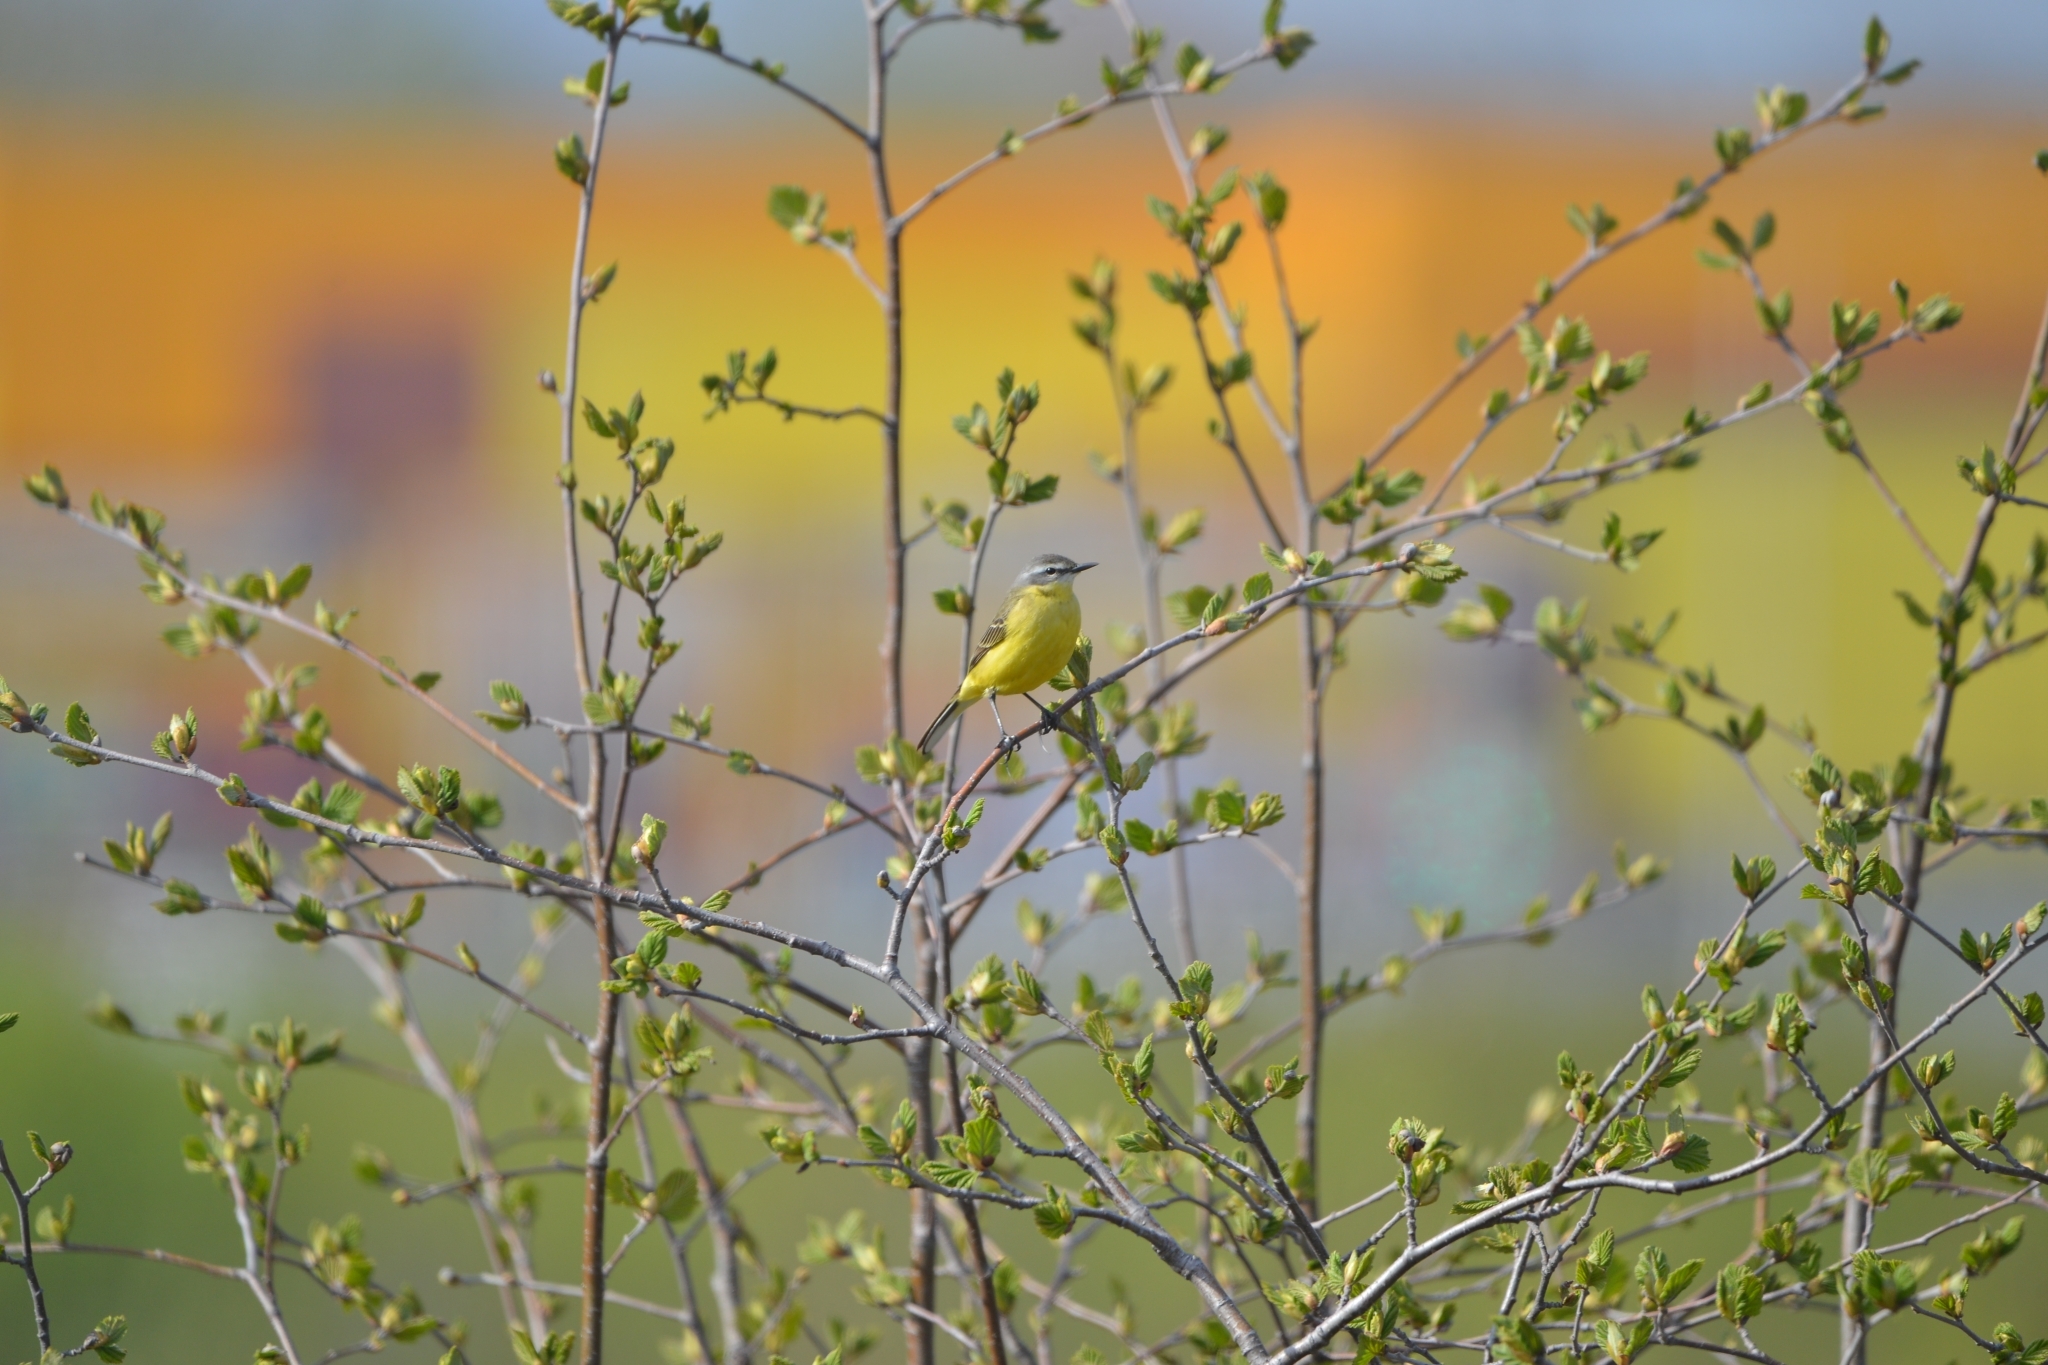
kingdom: Animalia
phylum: Chordata
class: Aves
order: Passeriformes
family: Motacillidae
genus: Motacilla
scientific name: Motacilla tschutschensis
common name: Eastern yellow wagtail
